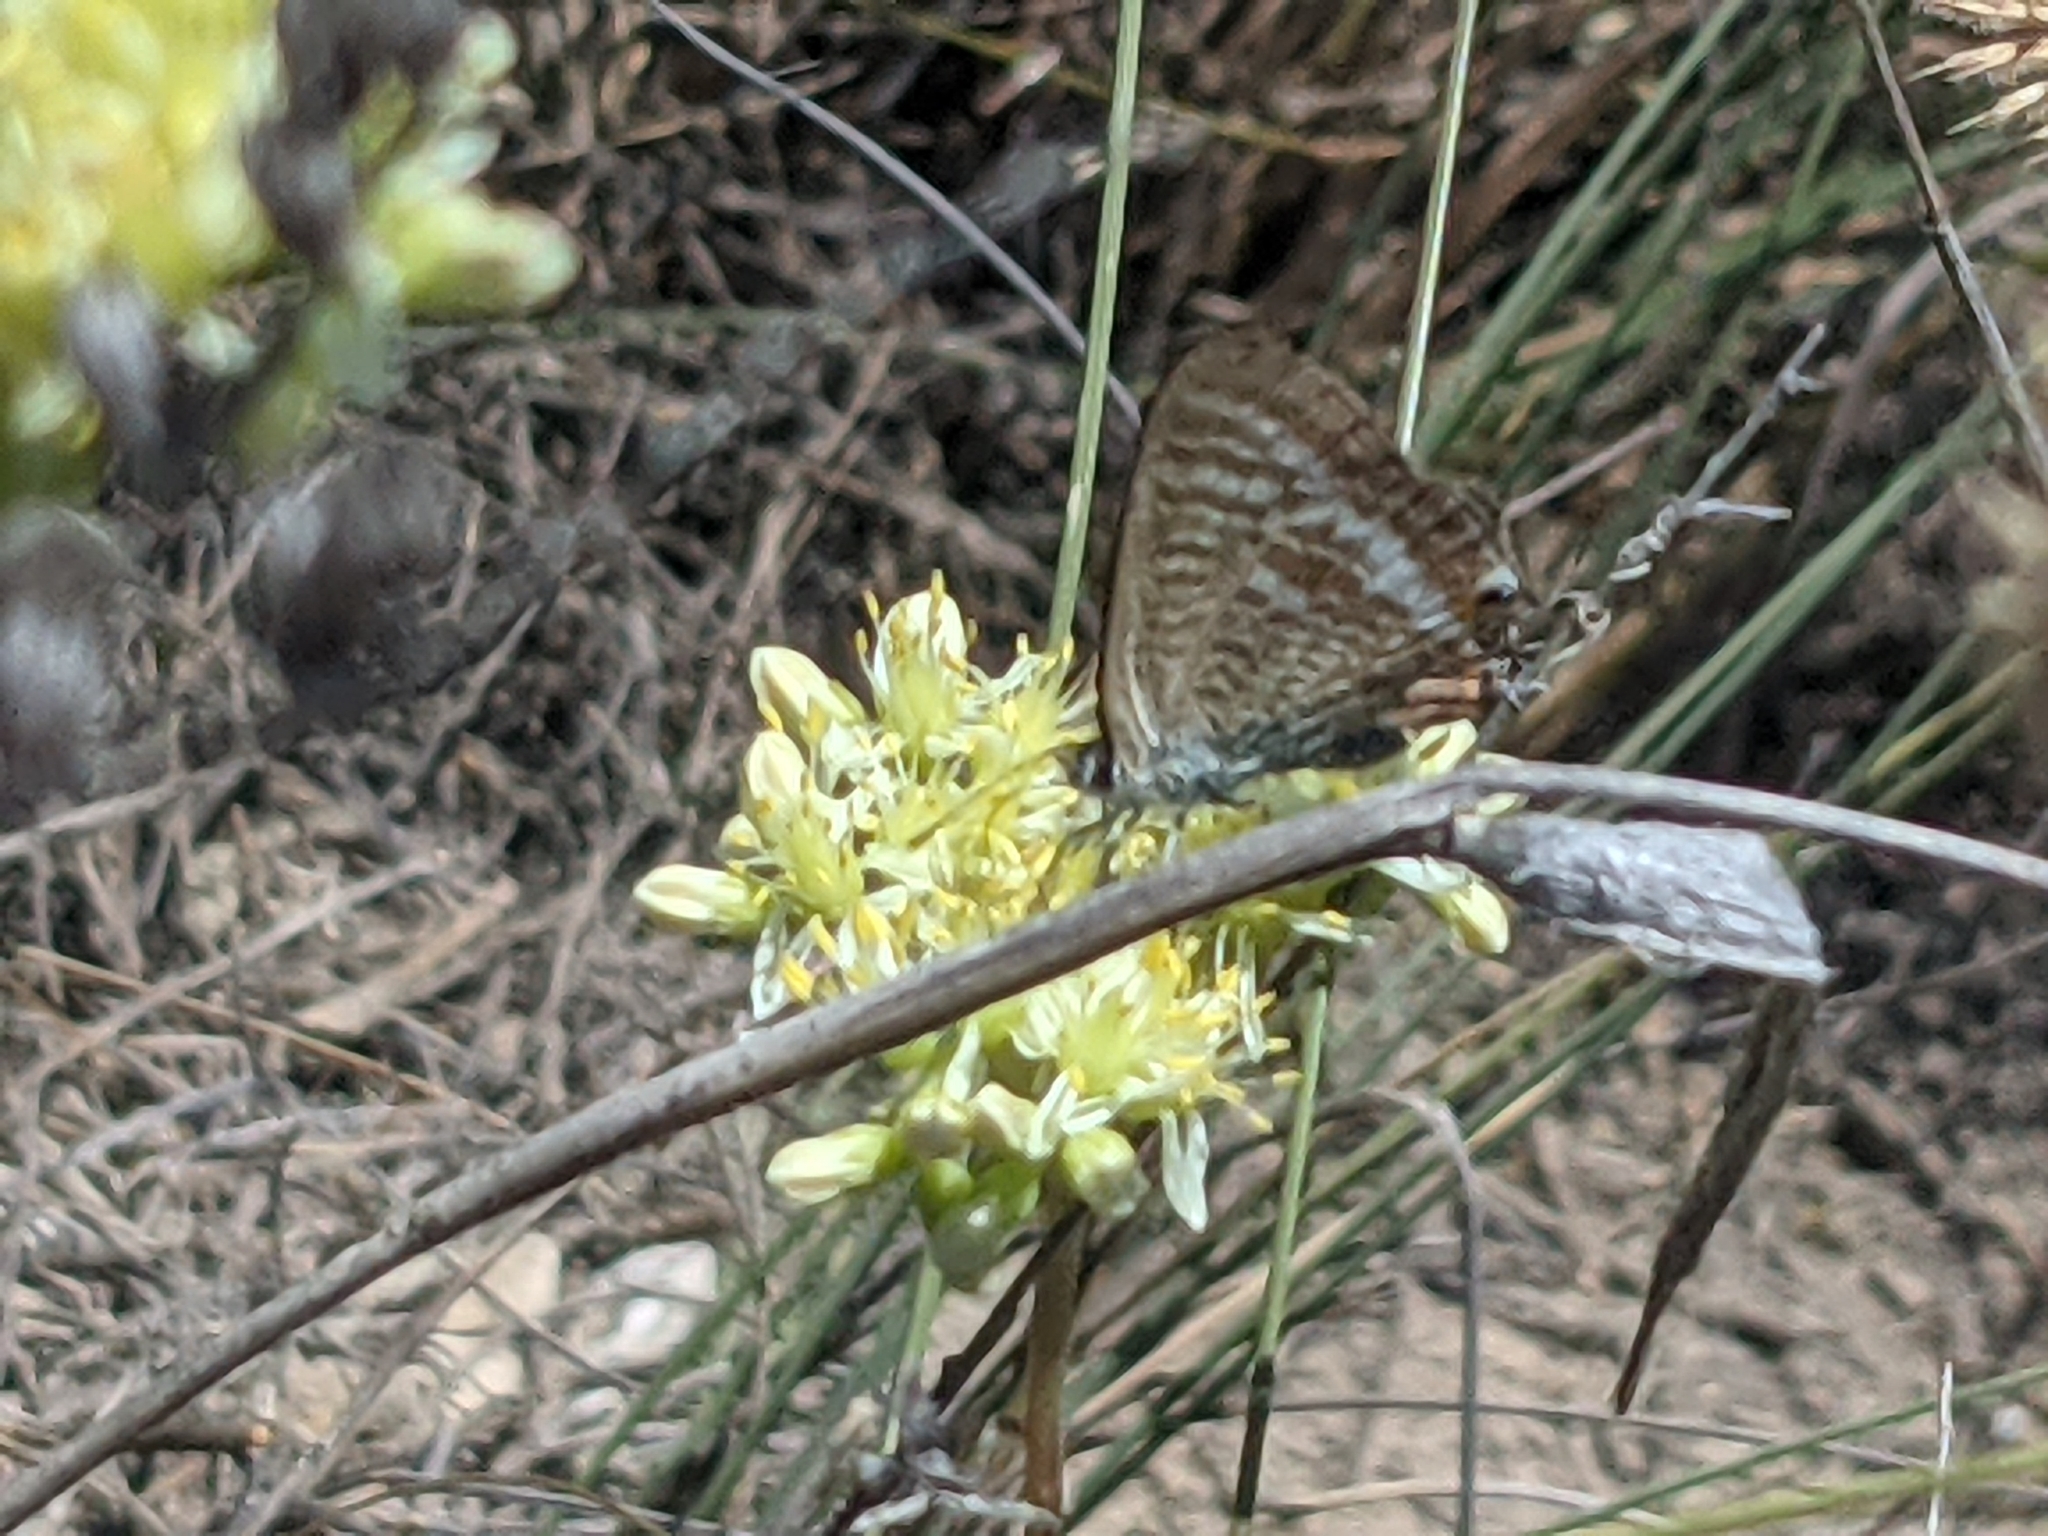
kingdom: Animalia
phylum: Arthropoda
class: Insecta
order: Lepidoptera
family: Lycaenidae
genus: Lampides
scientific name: Lampides boeticus
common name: Long-tailed blue
